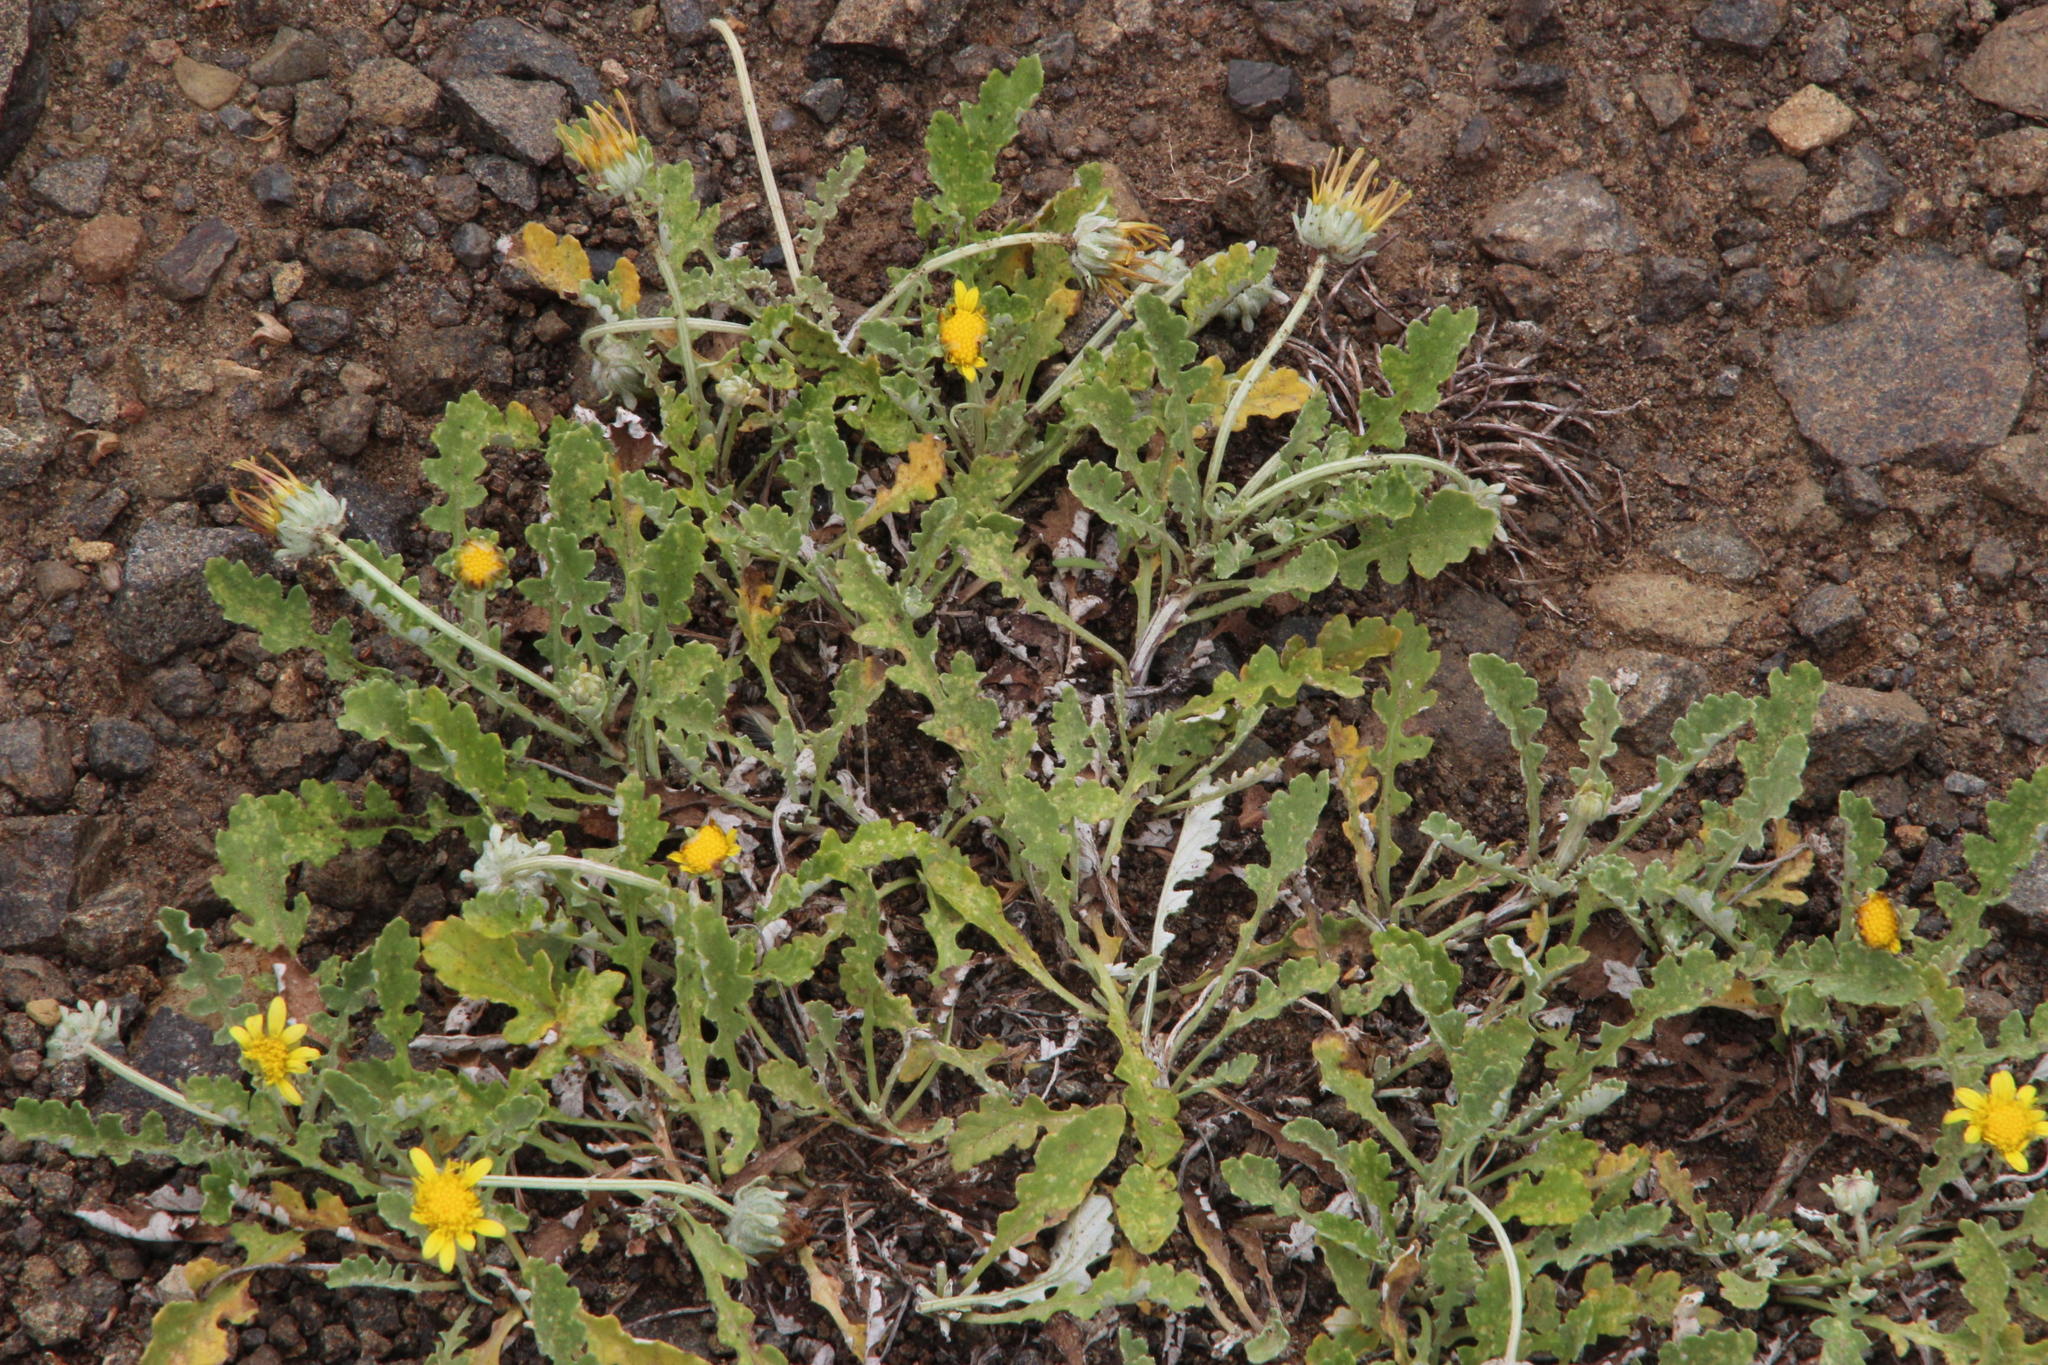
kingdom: Plantae
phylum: Tracheophyta
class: Magnoliopsida
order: Asterales
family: Asteraceae
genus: Arctotis
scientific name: Arctotis arctotoides
